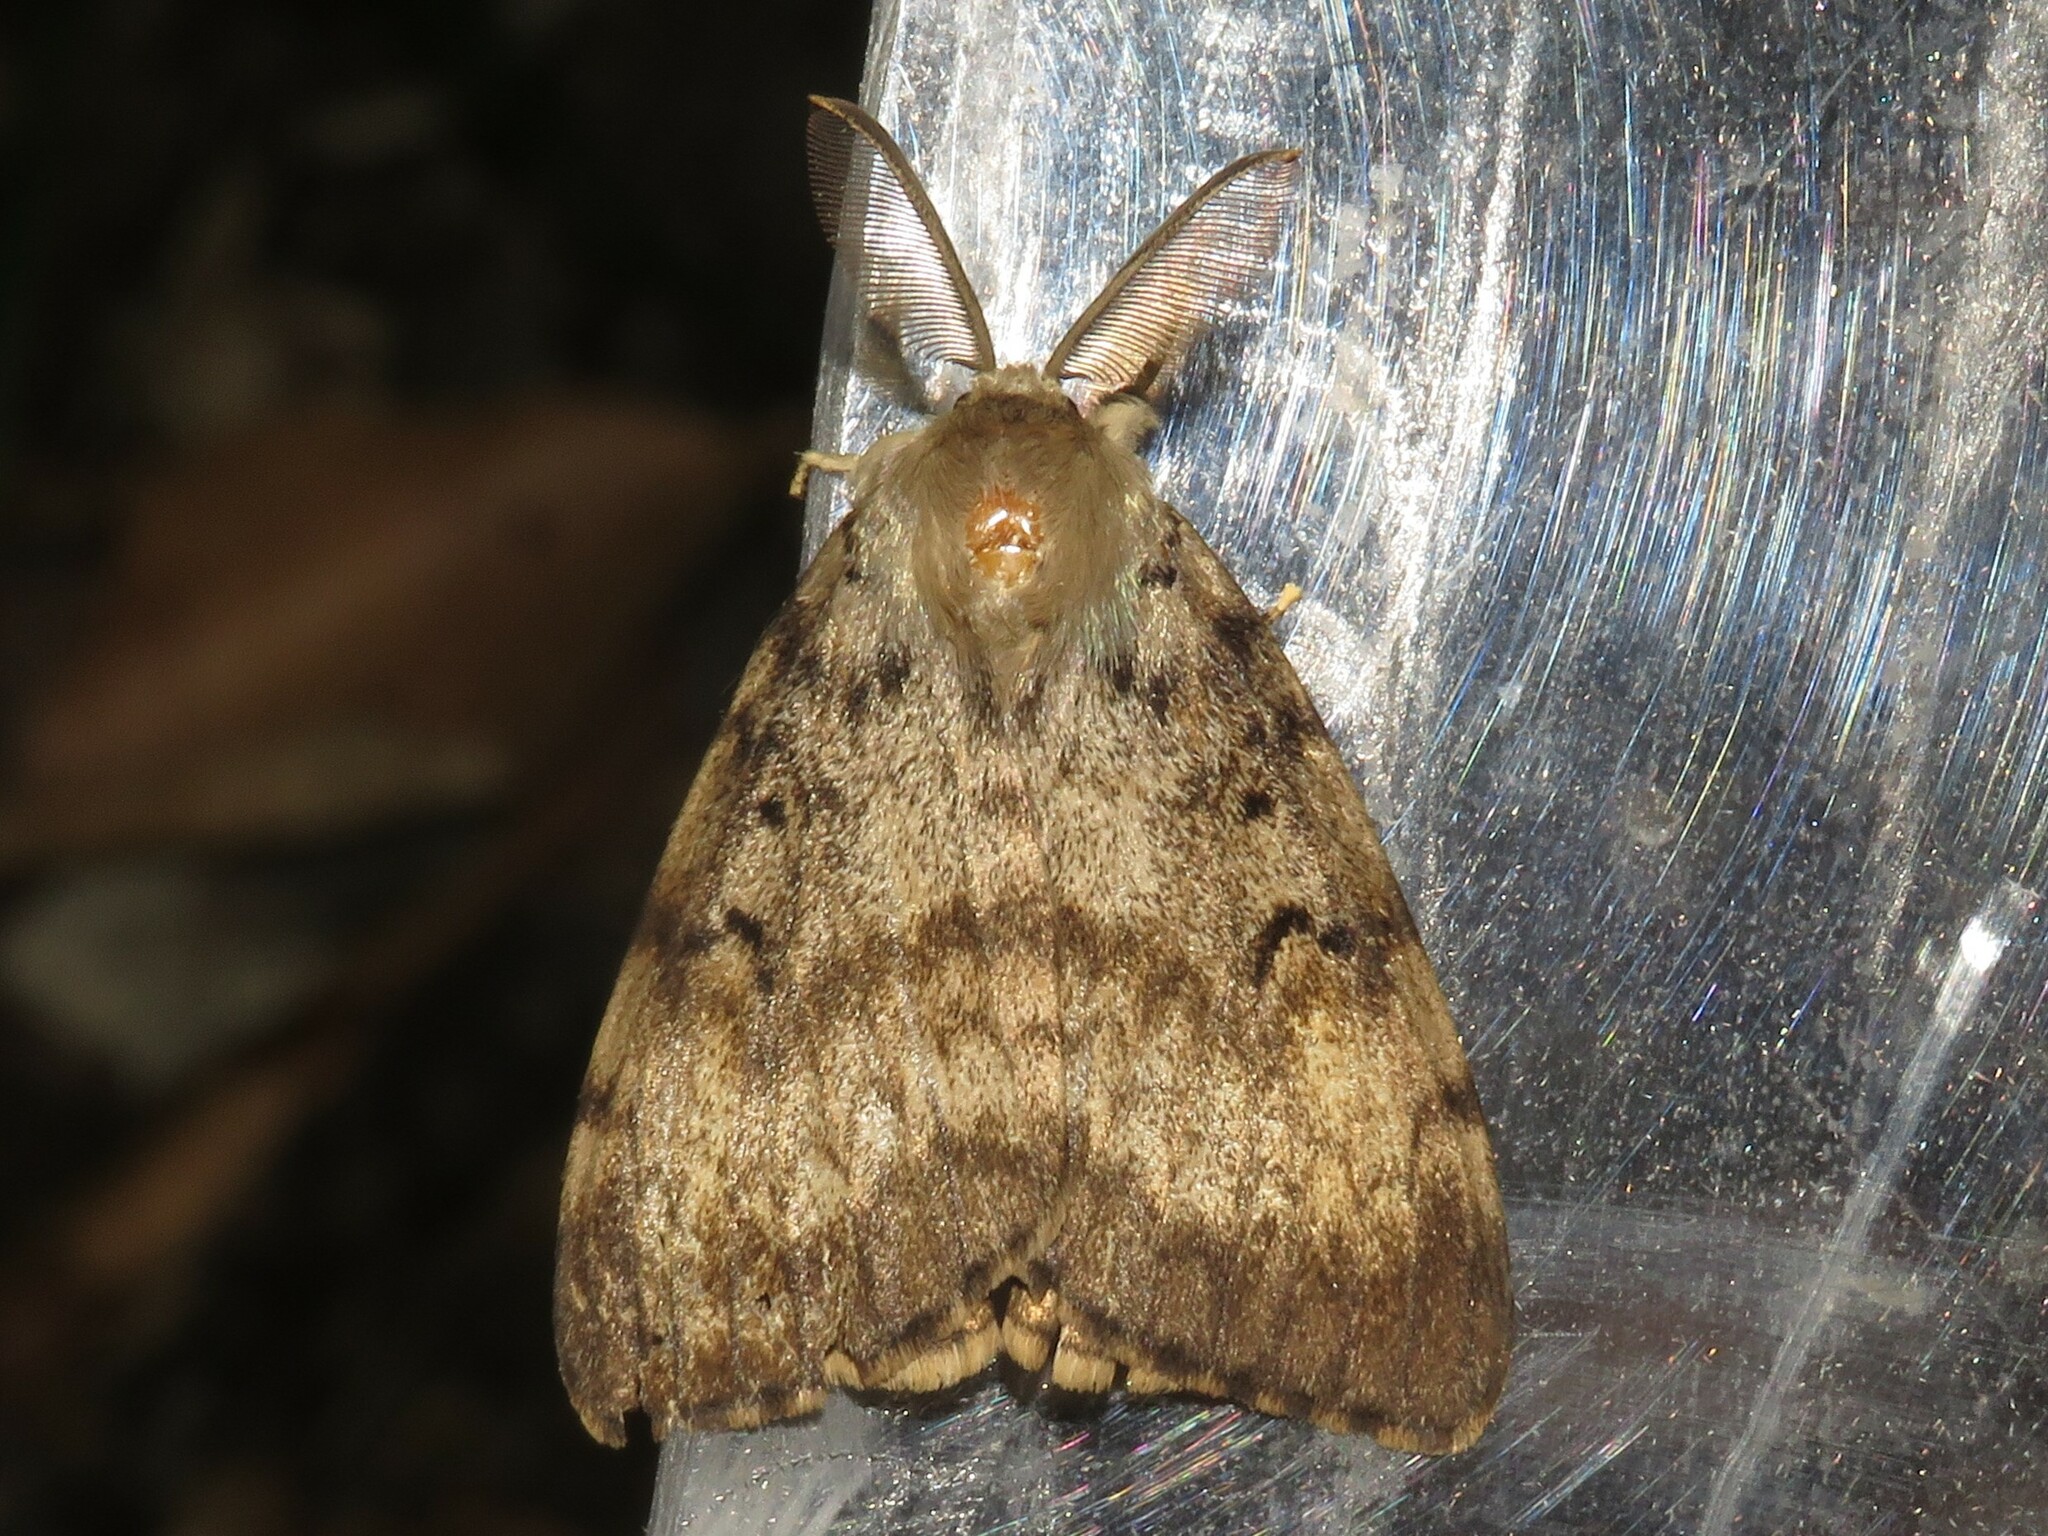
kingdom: Animalia
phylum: Arthropoda
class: Insecta
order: Lepidoptera
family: Erebidae
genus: Lymantria
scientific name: Lymantria dispar
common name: Gypsy moth
